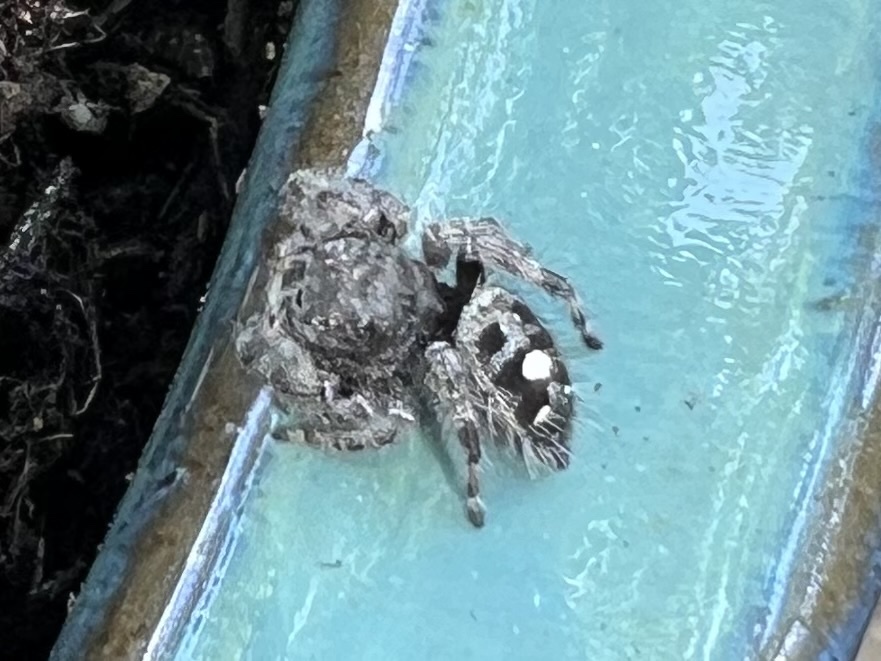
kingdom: Animalia
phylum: Arthropoda
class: Arachnida
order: Araneae
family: Salticidae
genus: Phidippus
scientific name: Phidippus audax
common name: Bold jumper
